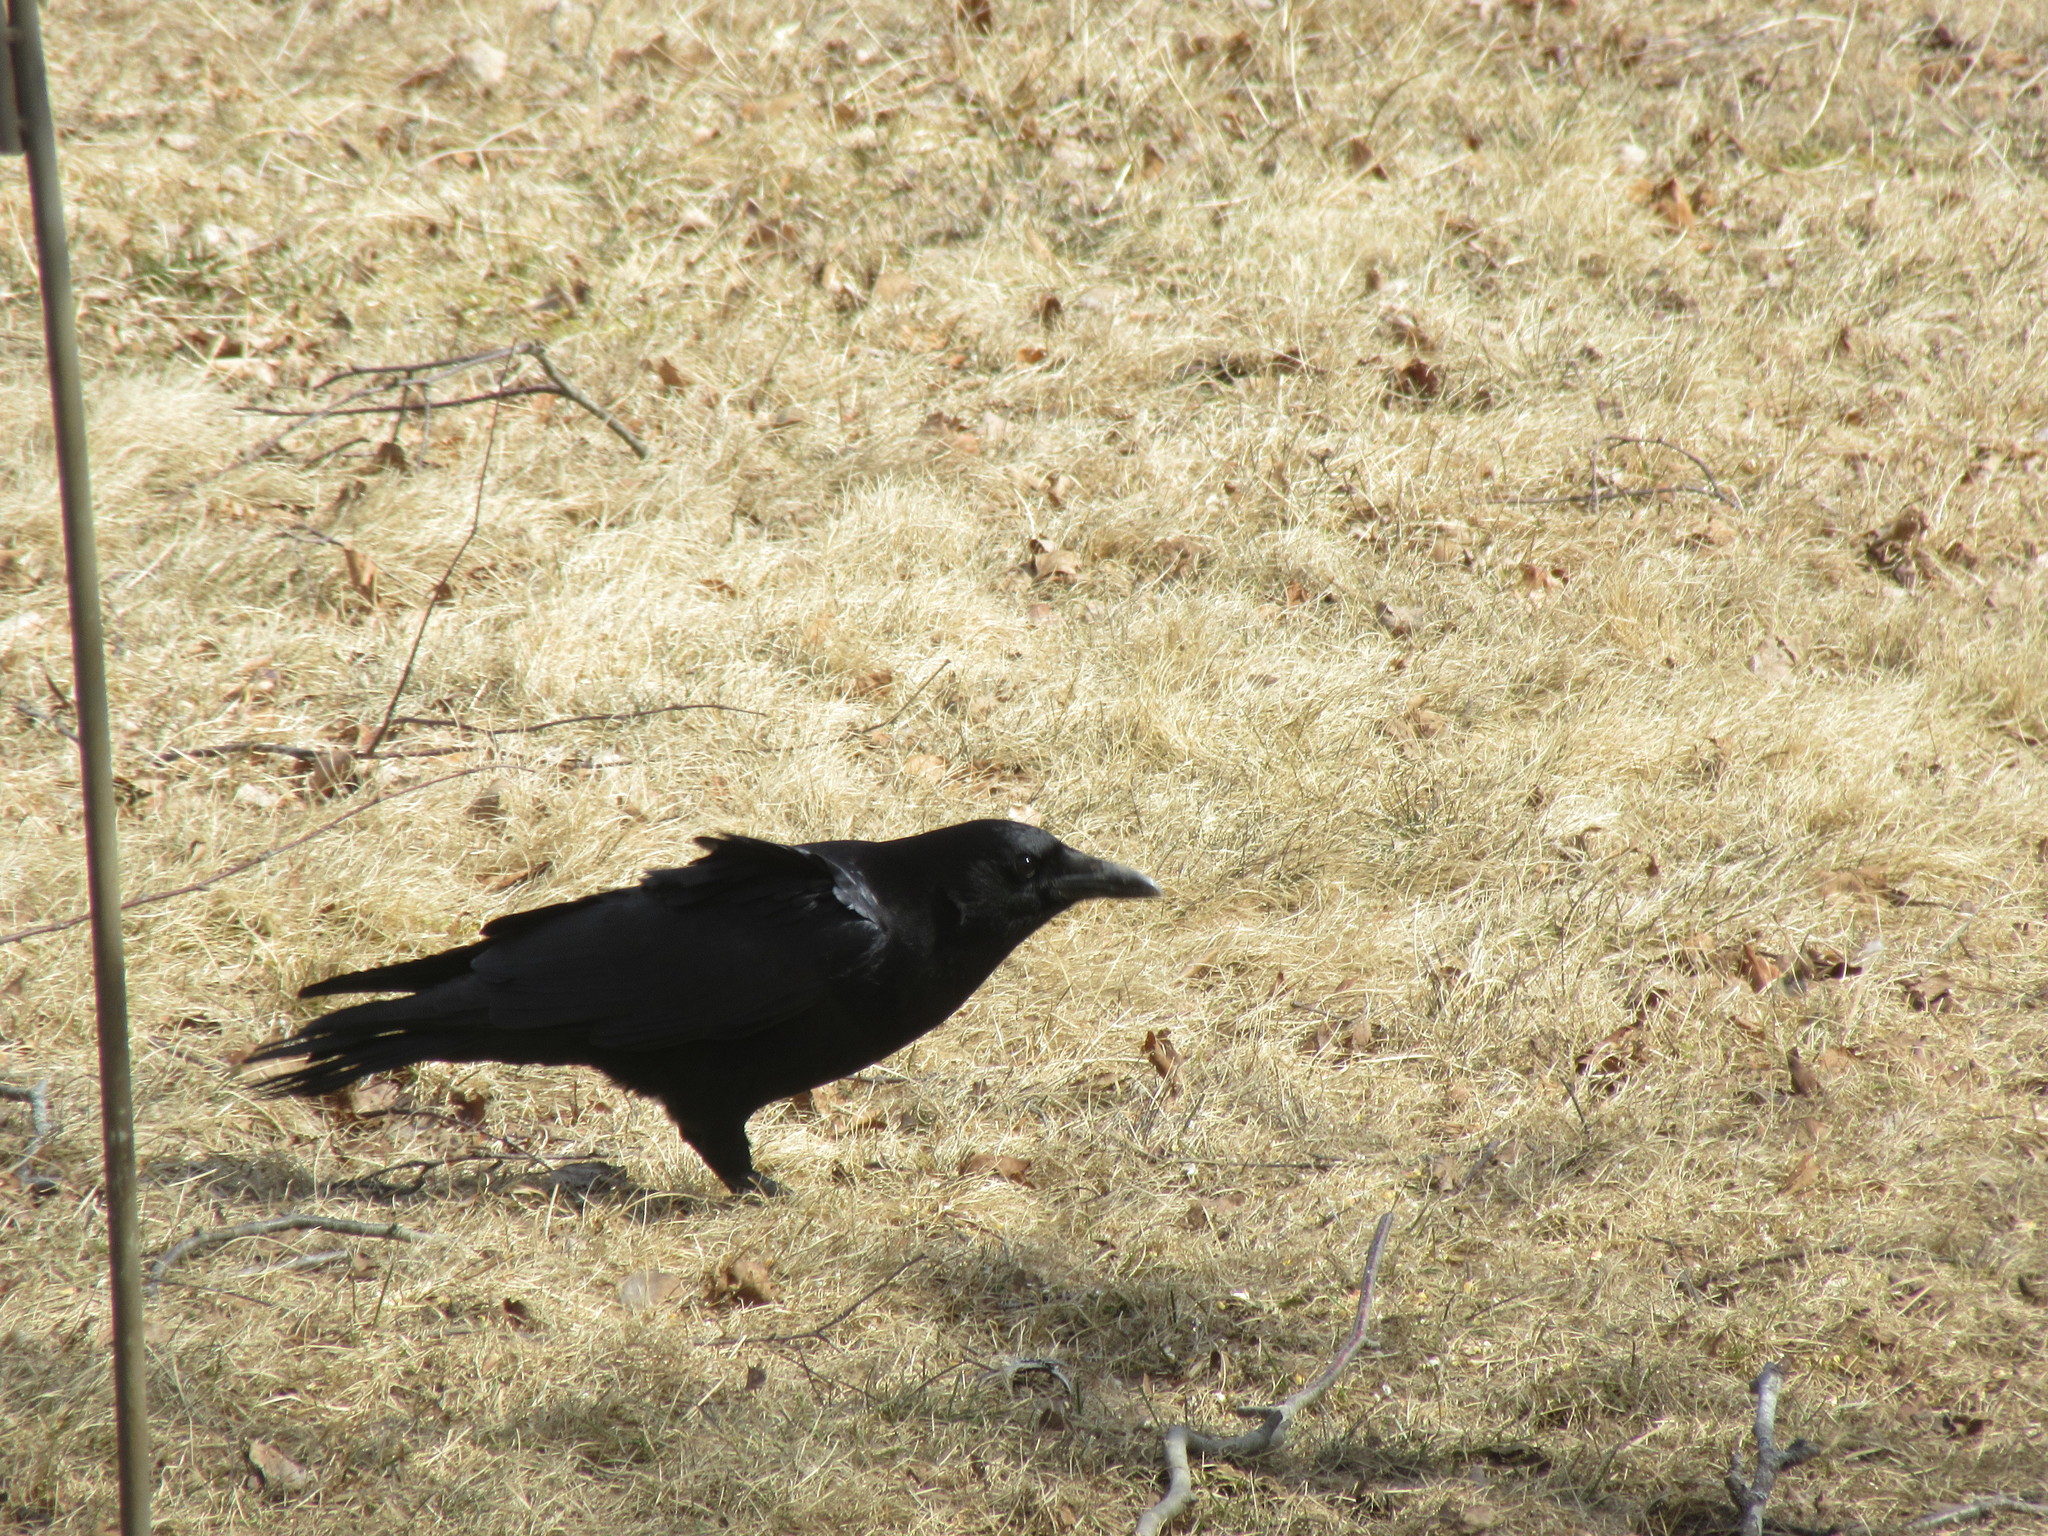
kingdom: Animalia
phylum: Chordata
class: Aves
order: Passeriformes
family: Corvidae
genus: Corvus
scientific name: Corvus brachyrhynchos
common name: American crow
